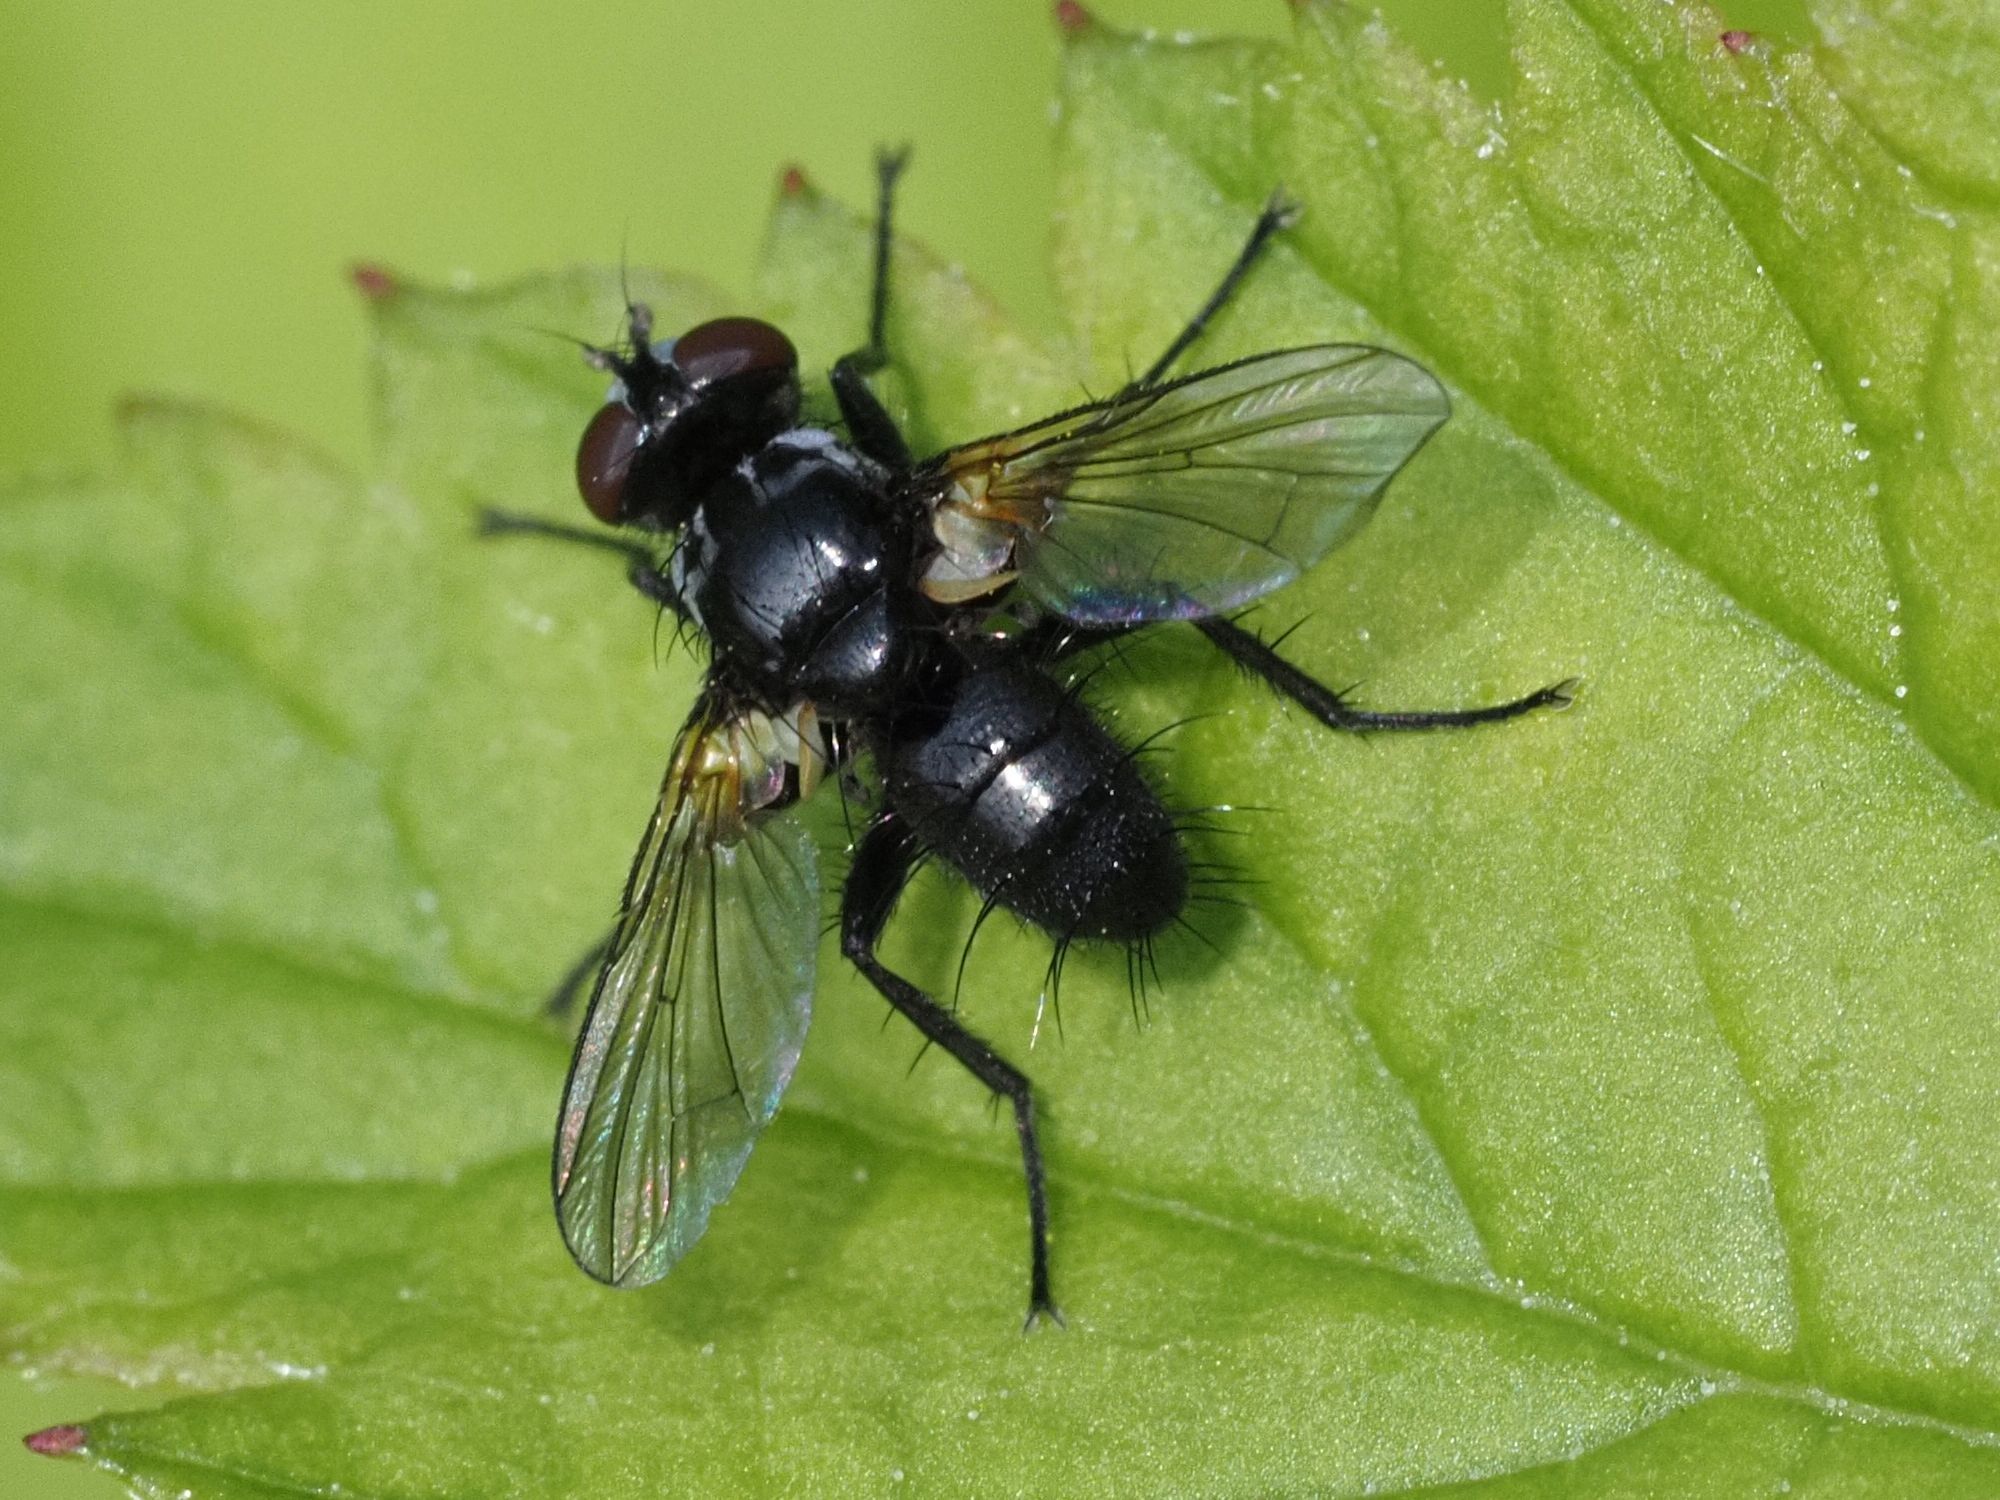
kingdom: Animalia
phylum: Arthropoda
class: Insecta
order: Diptera
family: Tachinidae
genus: Phania
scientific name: Phania funesta
